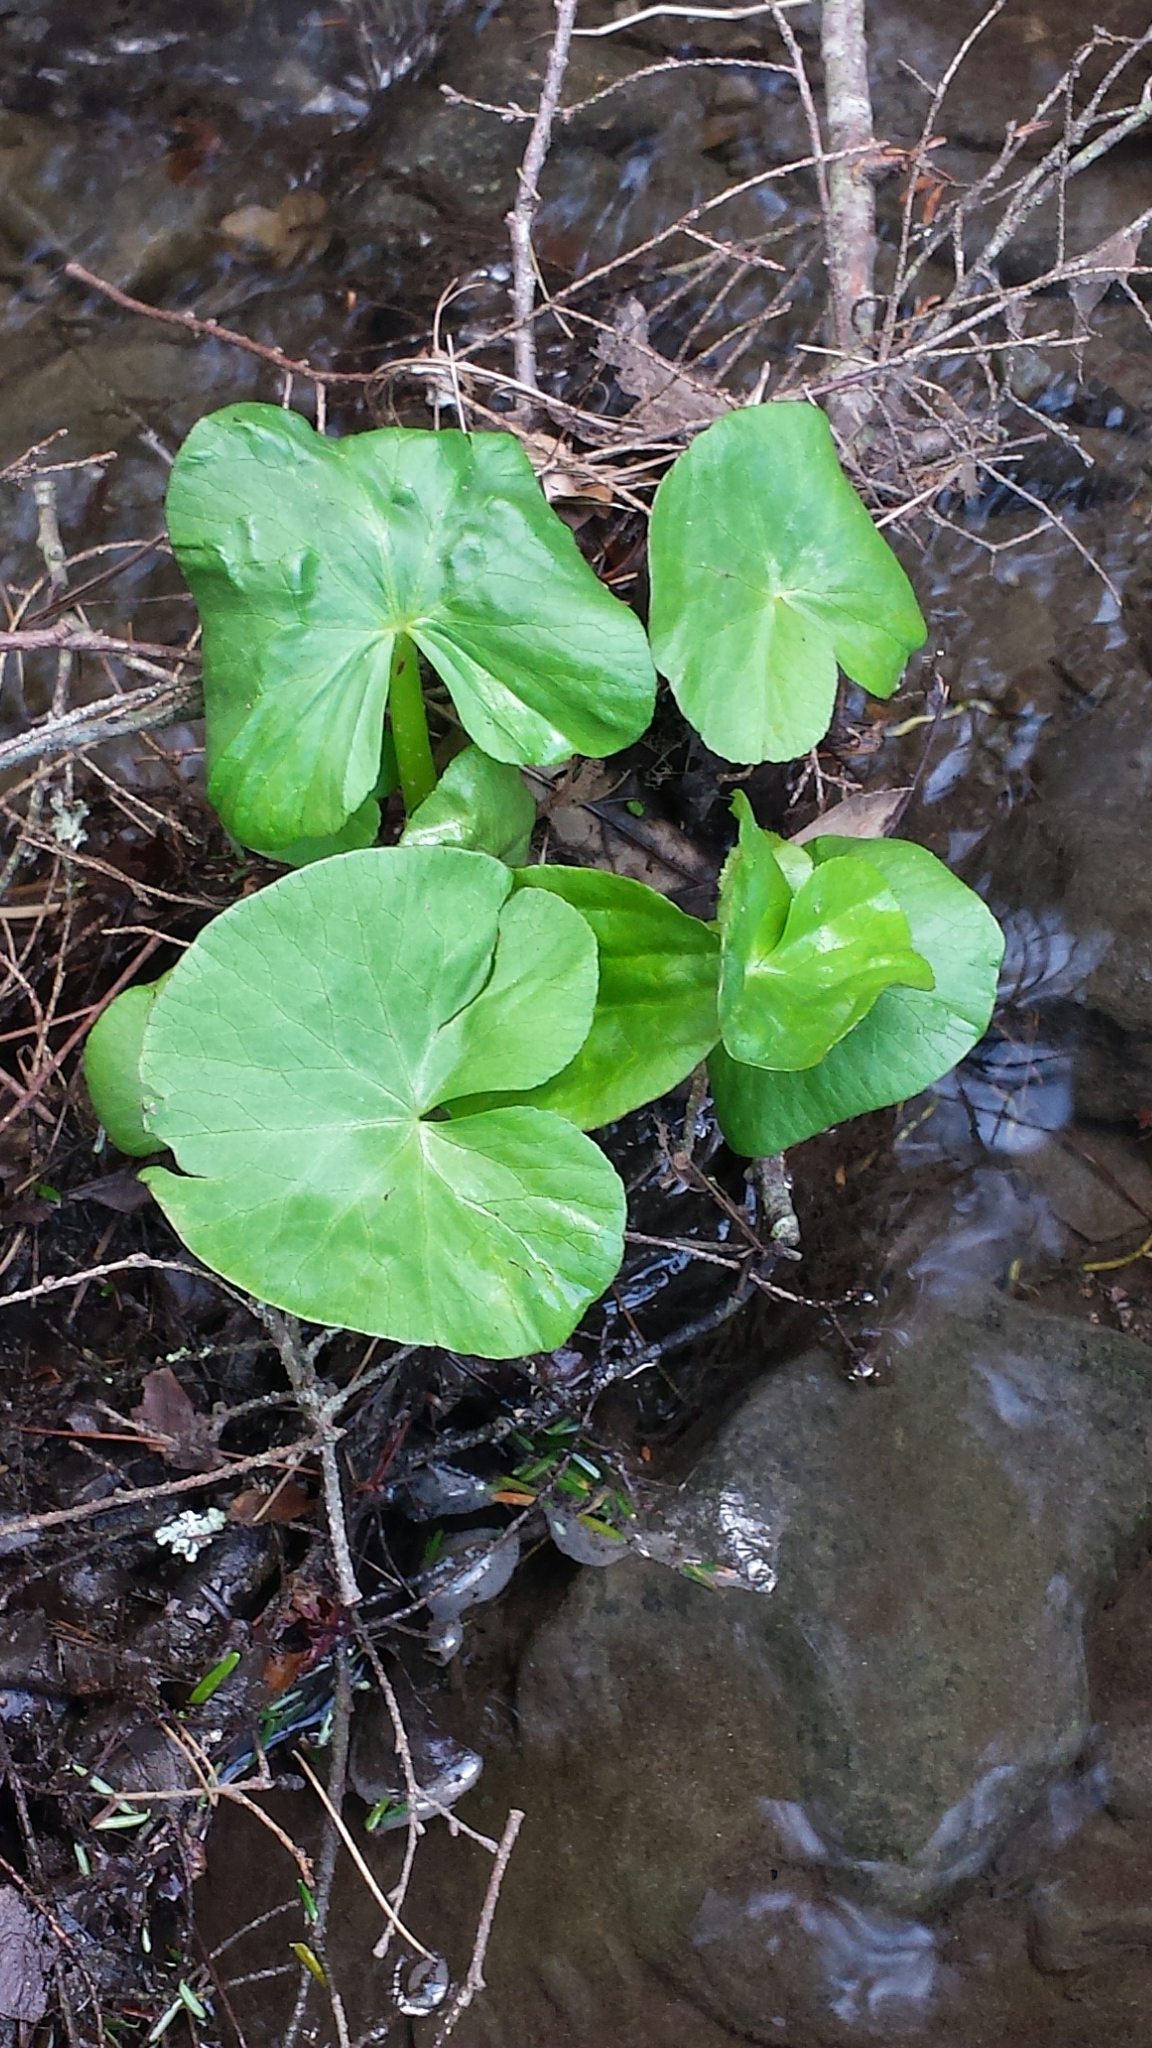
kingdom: Plantae
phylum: Tracheophyta
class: Magnoliopsida
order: Ranunculales
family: Ranunculaceae
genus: Caltha
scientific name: Caltha palustris
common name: Marsh marigold
